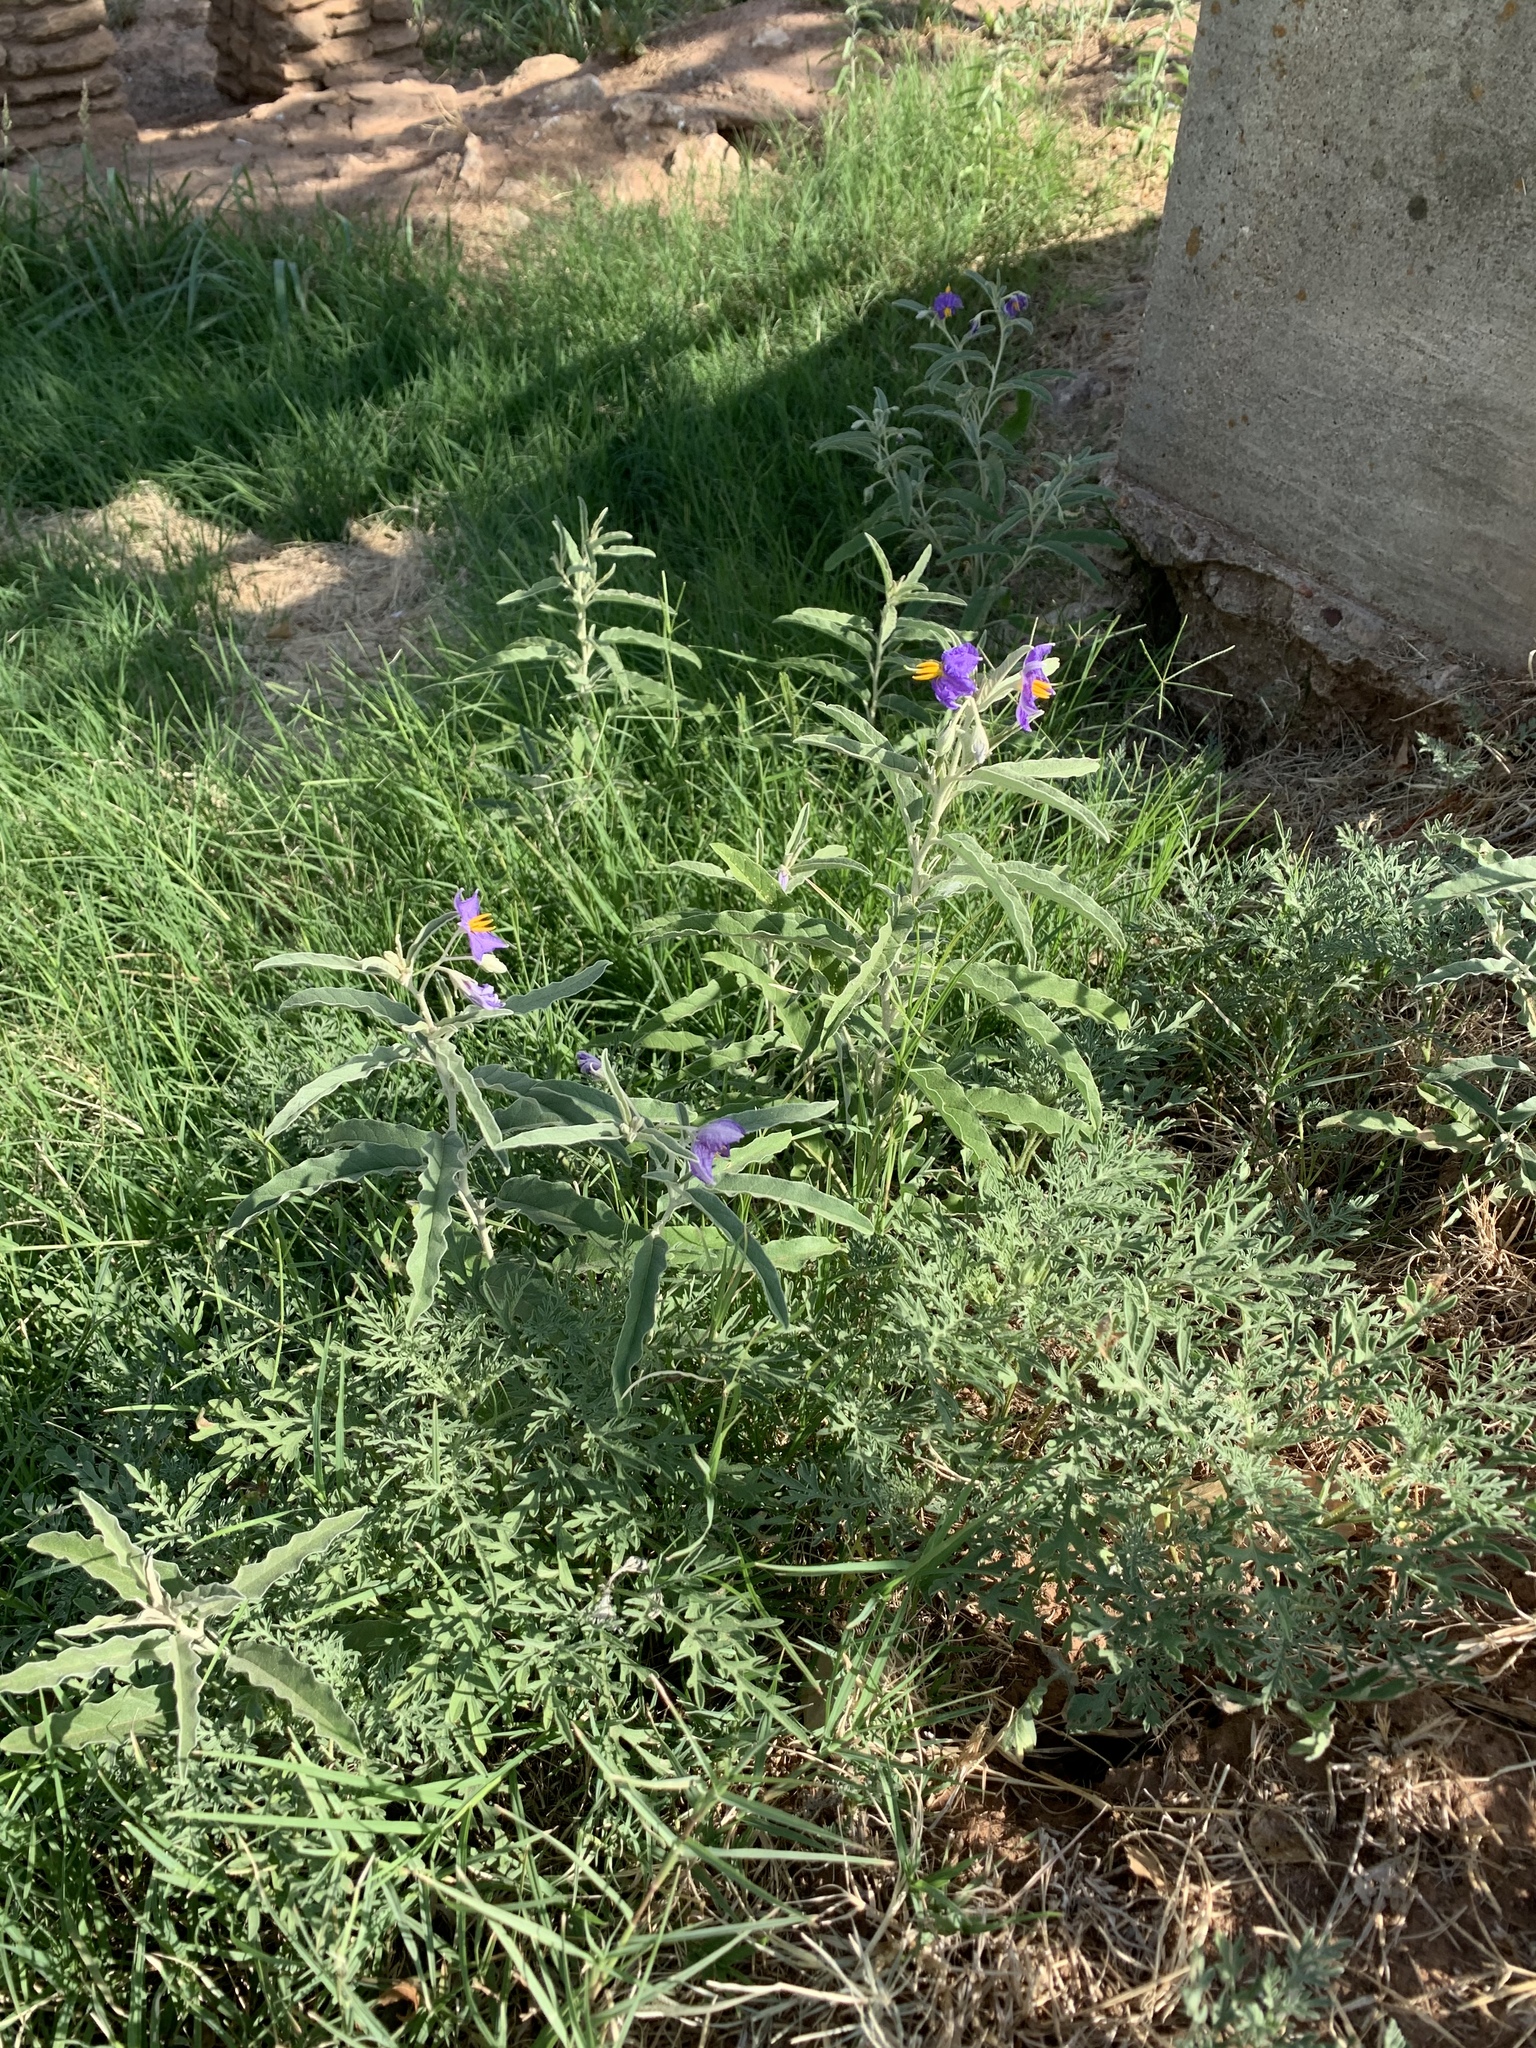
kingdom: Plantae
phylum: Tracheophyta
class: Magnoliopsida
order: Solanales
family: Solanaceae
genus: Solanum
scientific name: Solanum elaeagnifolium
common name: Silverleaf nightshade
